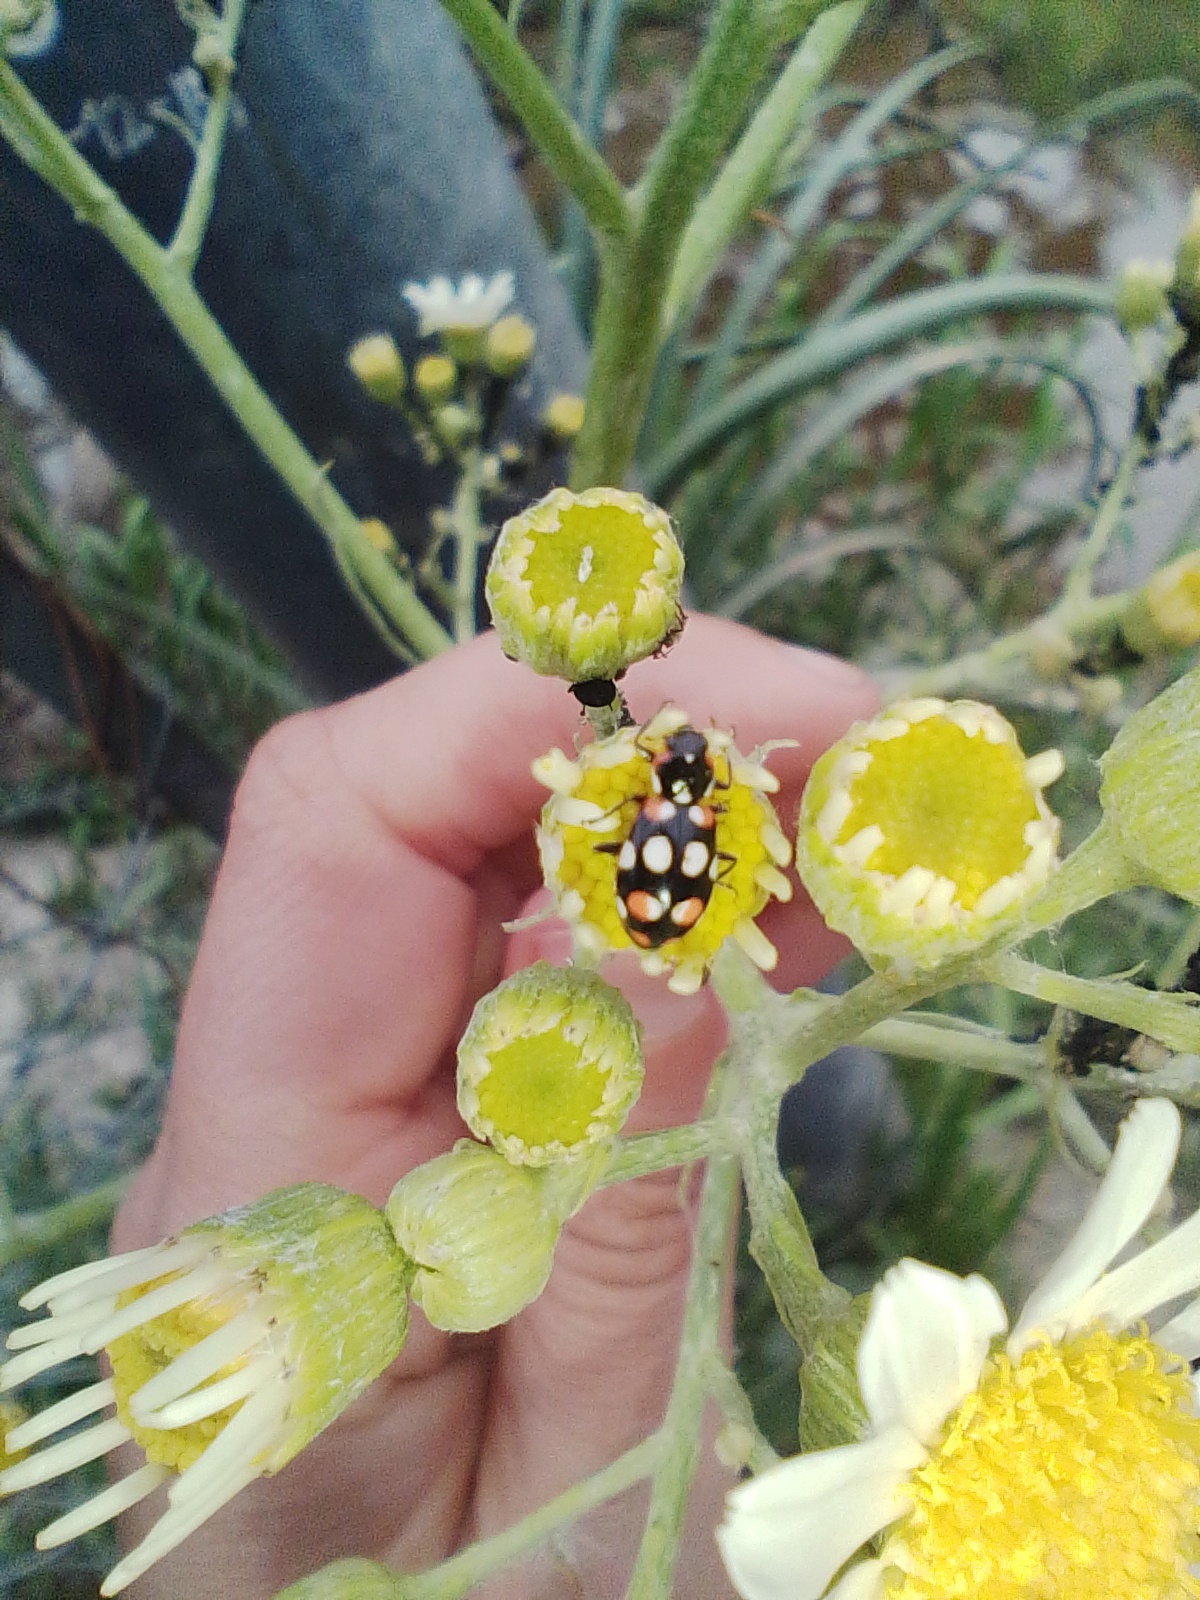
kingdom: Animalia
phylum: Arthropoda
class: Insecta
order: Coleoptera
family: Coccinellidae
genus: Eriopis
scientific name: Eriopis connexa
